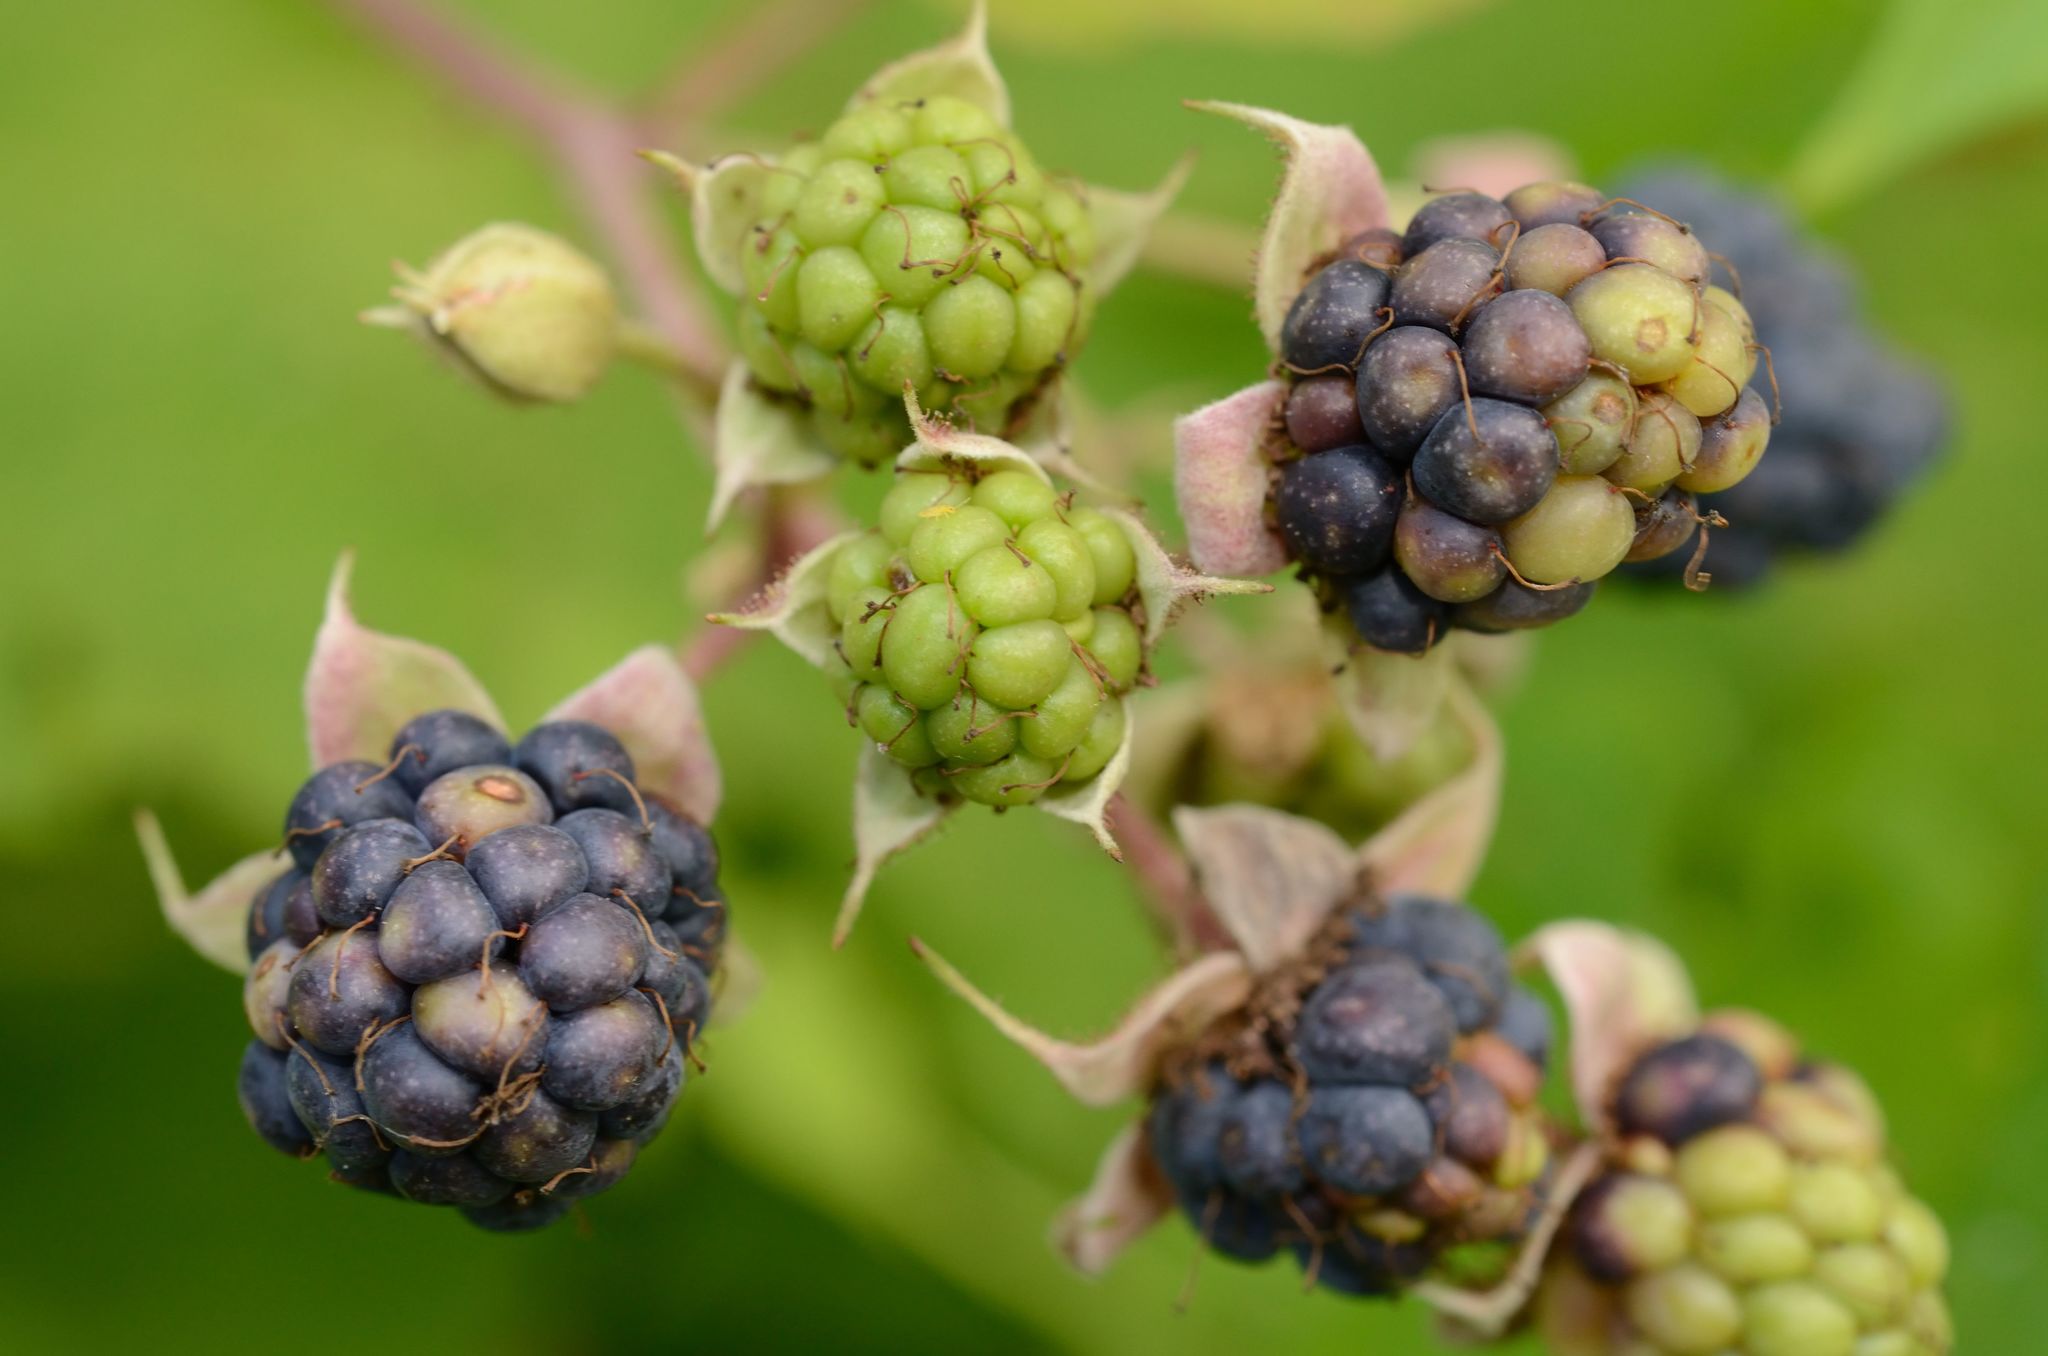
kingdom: Plantae
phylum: Tracheophyta
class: Magnoliopsida
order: Rosales
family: Rosaceae
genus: Rubus
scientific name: Rubus caesius
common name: Dewberry
